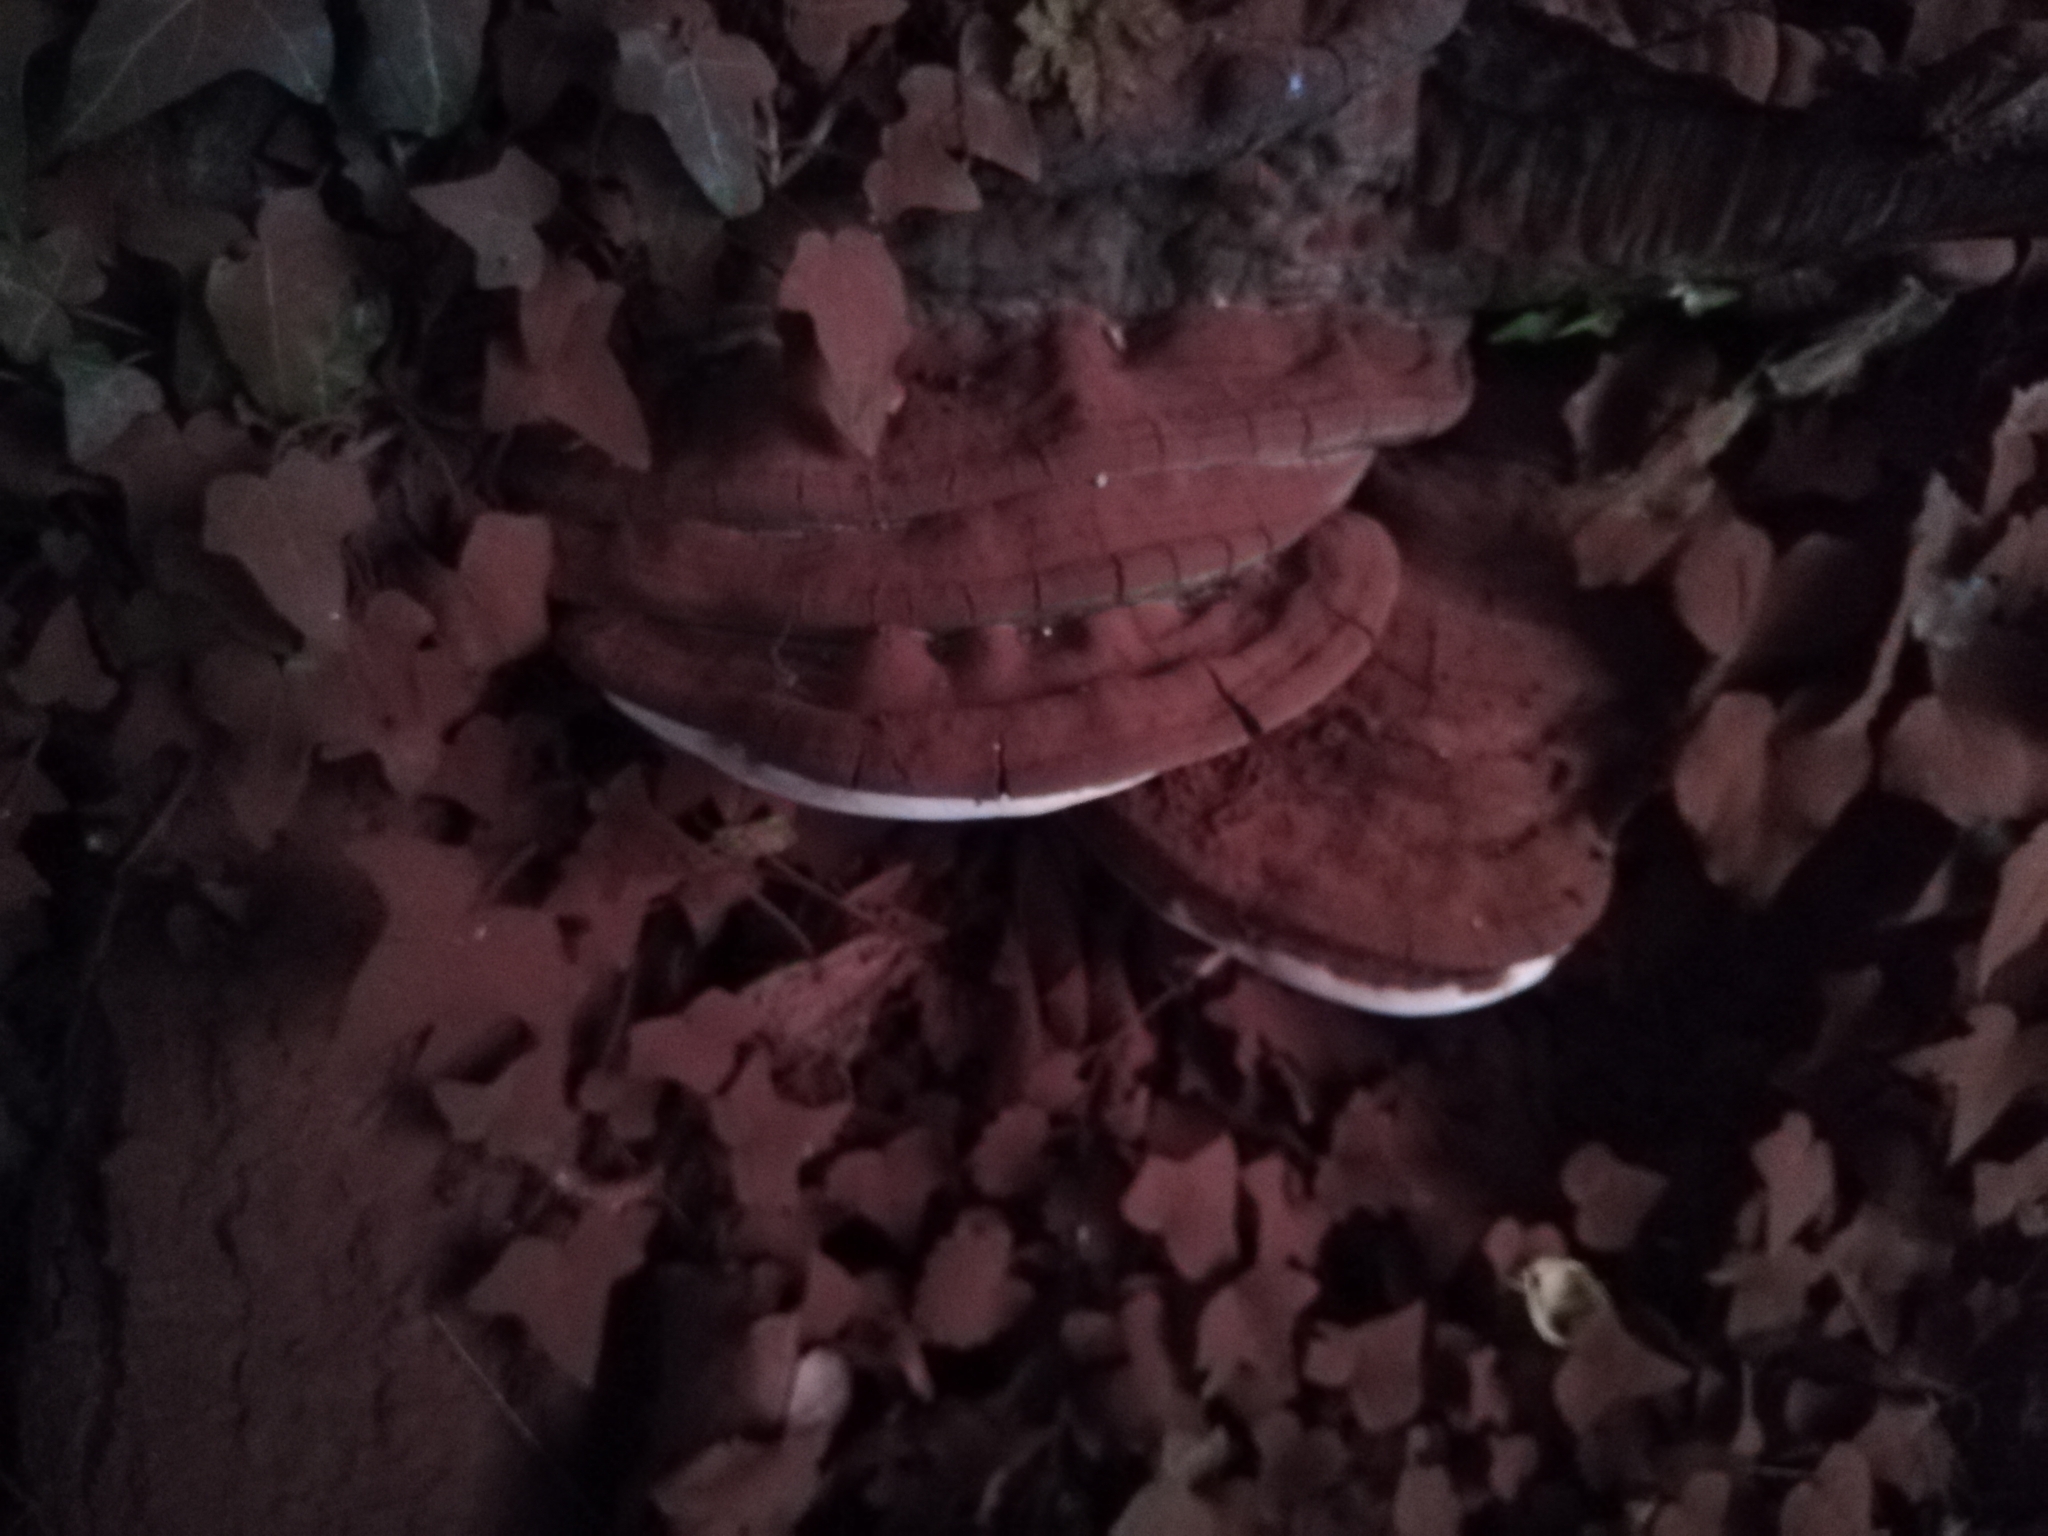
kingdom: Fungi
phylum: Basidiomycota
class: Agaricomycetes
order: Polyporales
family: Polyporaceae
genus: Ganoderma
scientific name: Ganoderma applanatum
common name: Artist's bracket
